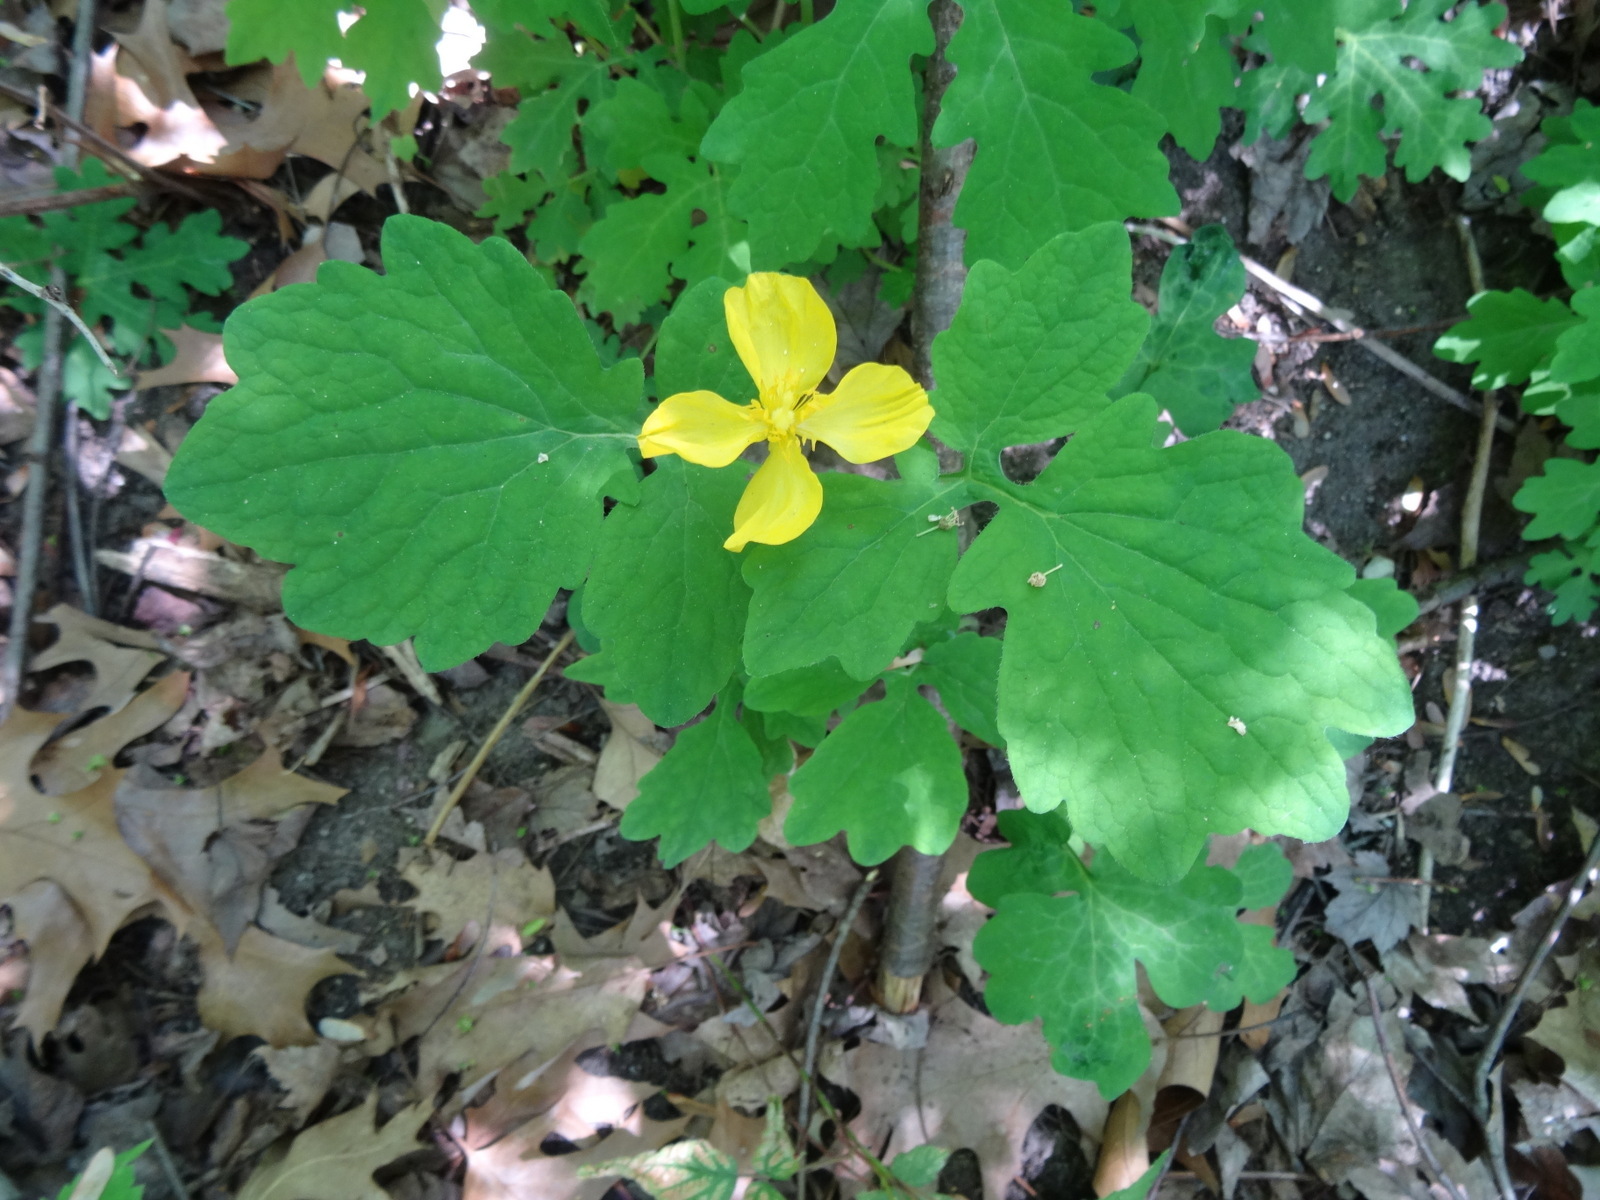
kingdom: Plantae
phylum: Tracheophyta
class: Magnoliopsida
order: Ranunculales
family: Papaveraceae
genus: Stylophorum
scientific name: Stylophorum diphyllum
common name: Celandine poppy
